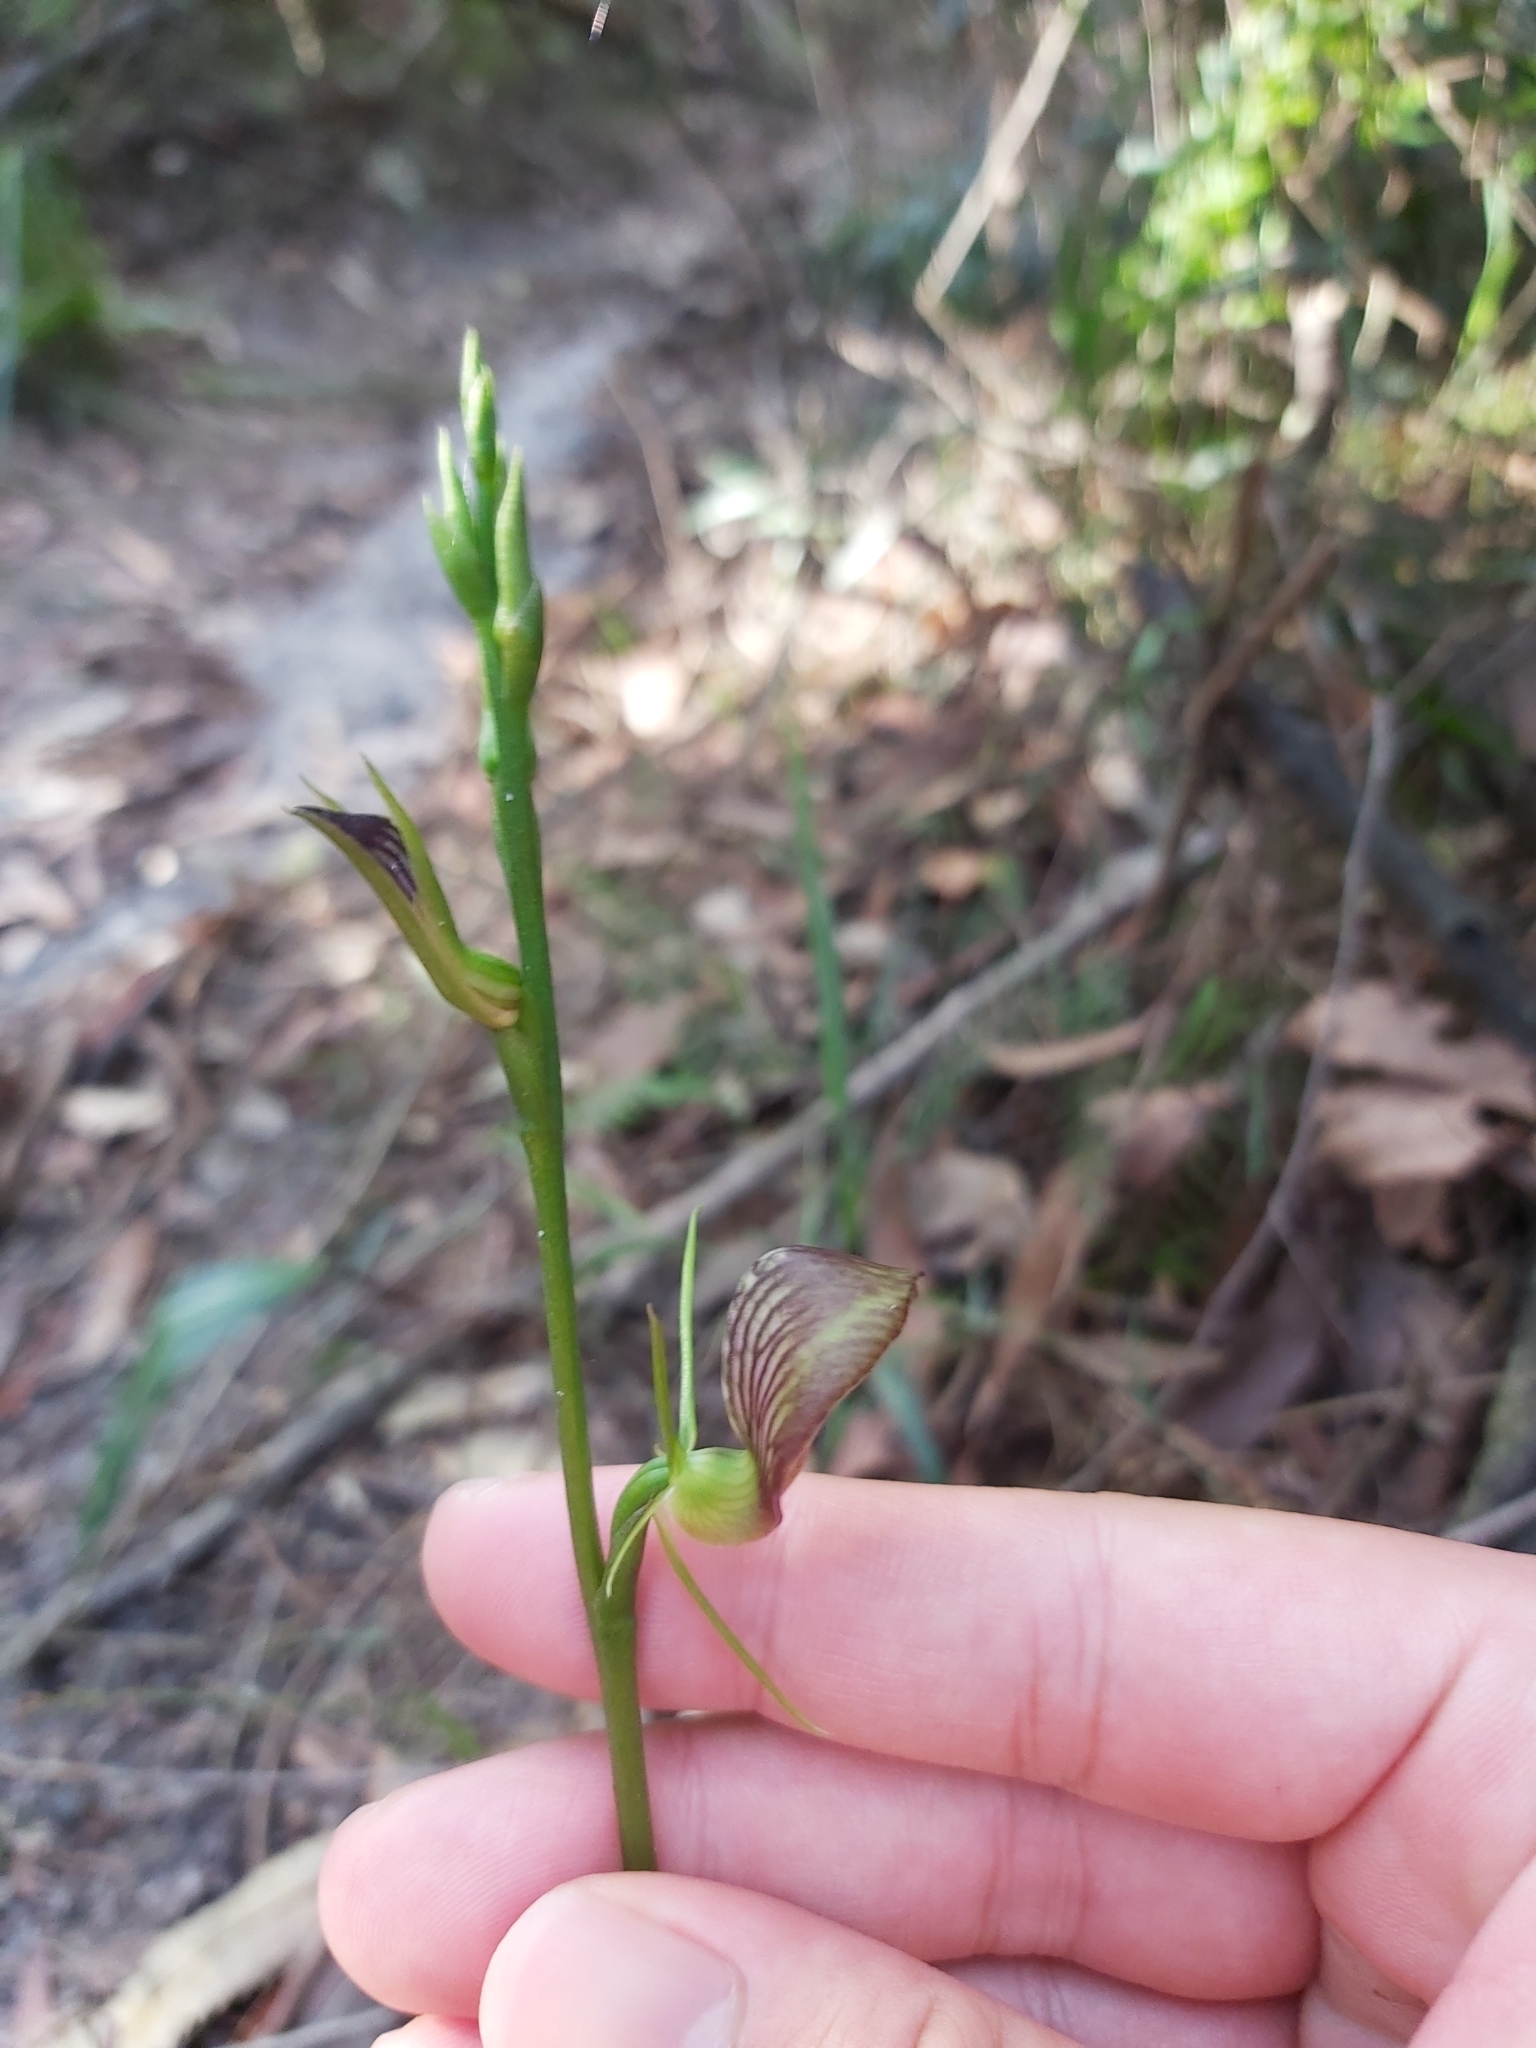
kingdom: Plantae
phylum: Tracheophyta
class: Liliopsida
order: Asparagales
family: Orchidaceae
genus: Cryptostylis
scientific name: Cryptostylis erecta
